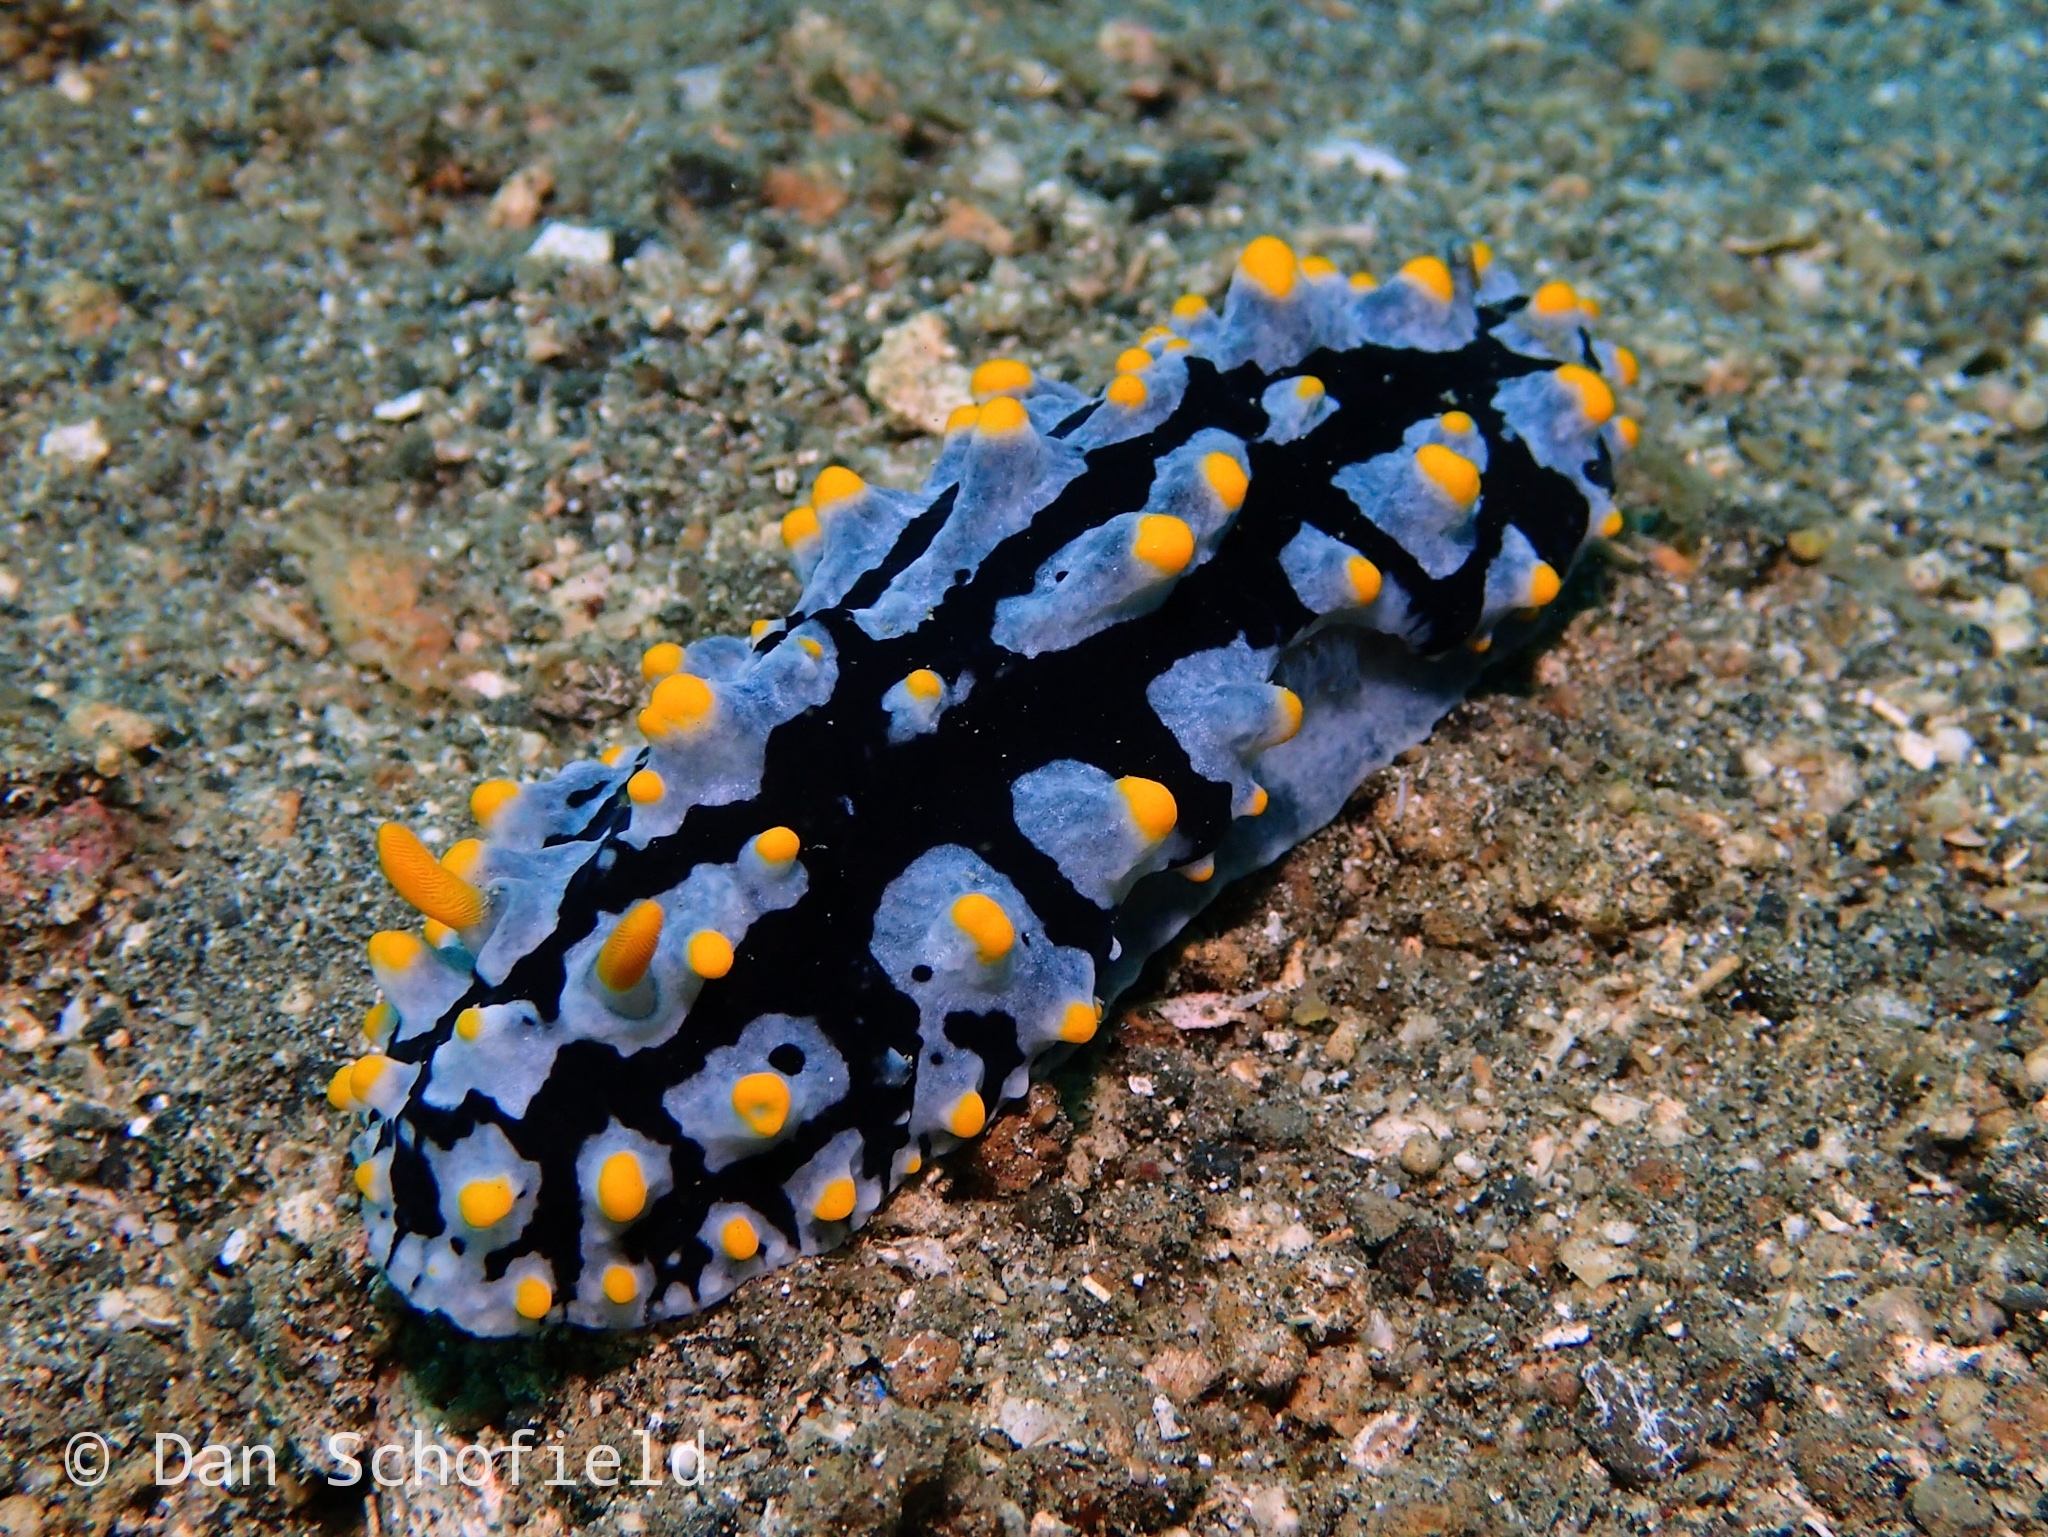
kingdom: Animalia
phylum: Mollusca
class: Gastropoda
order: Nudibranchia
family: Phyllidiidae
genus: Phyllidia
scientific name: Phyllidia varicosa
